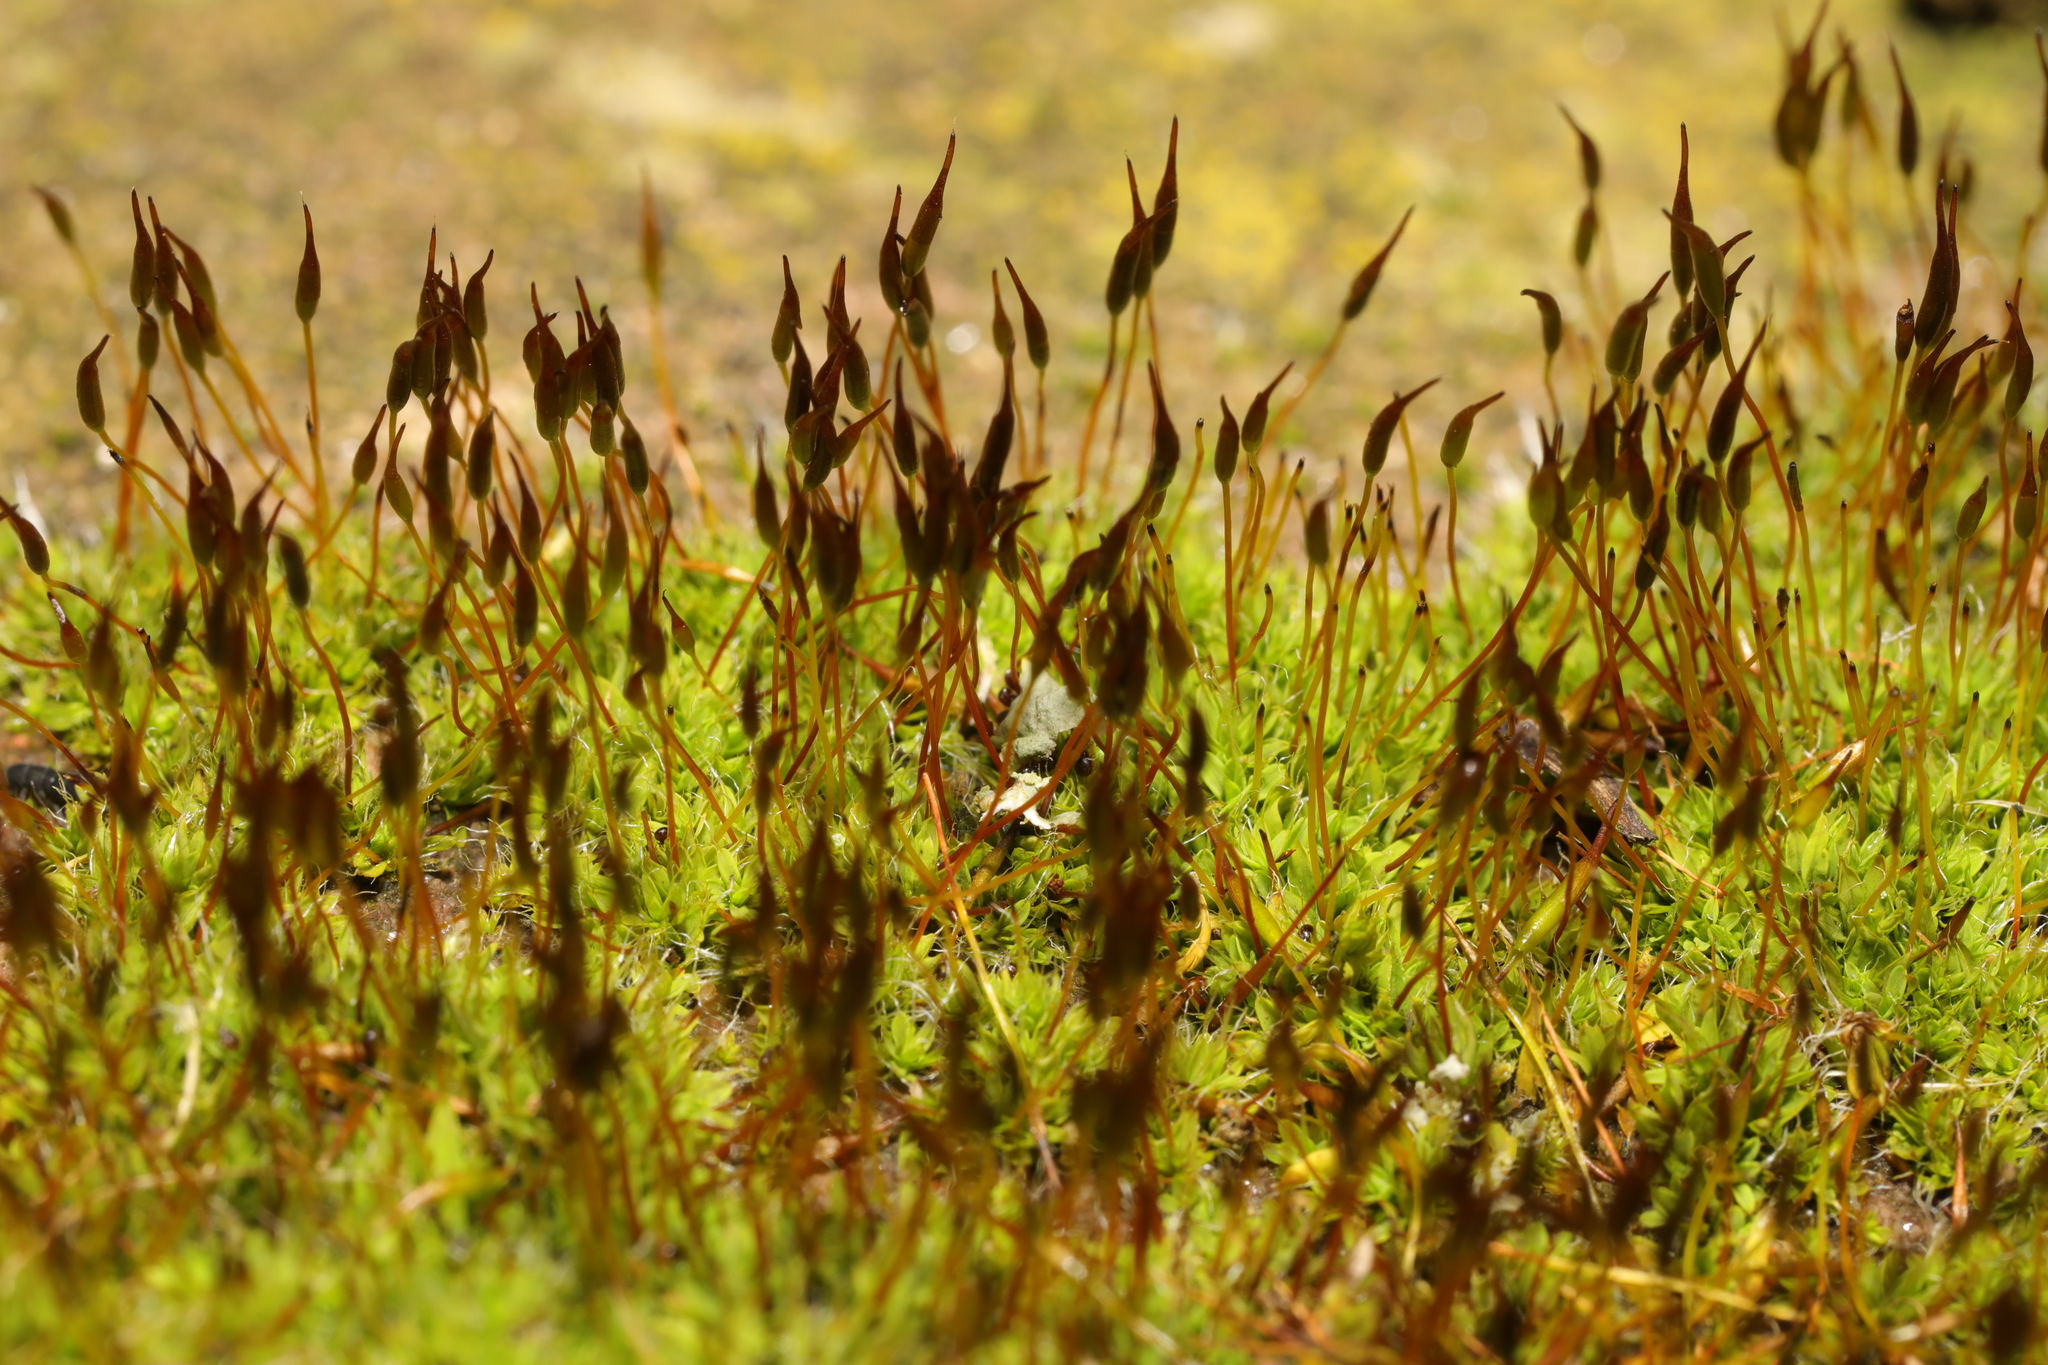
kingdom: Plantae
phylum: Bryophyta
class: Bryopsida
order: Pottiales
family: Pottiaceae
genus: Tortula
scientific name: Tortula muralis
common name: Wall screw-moss
